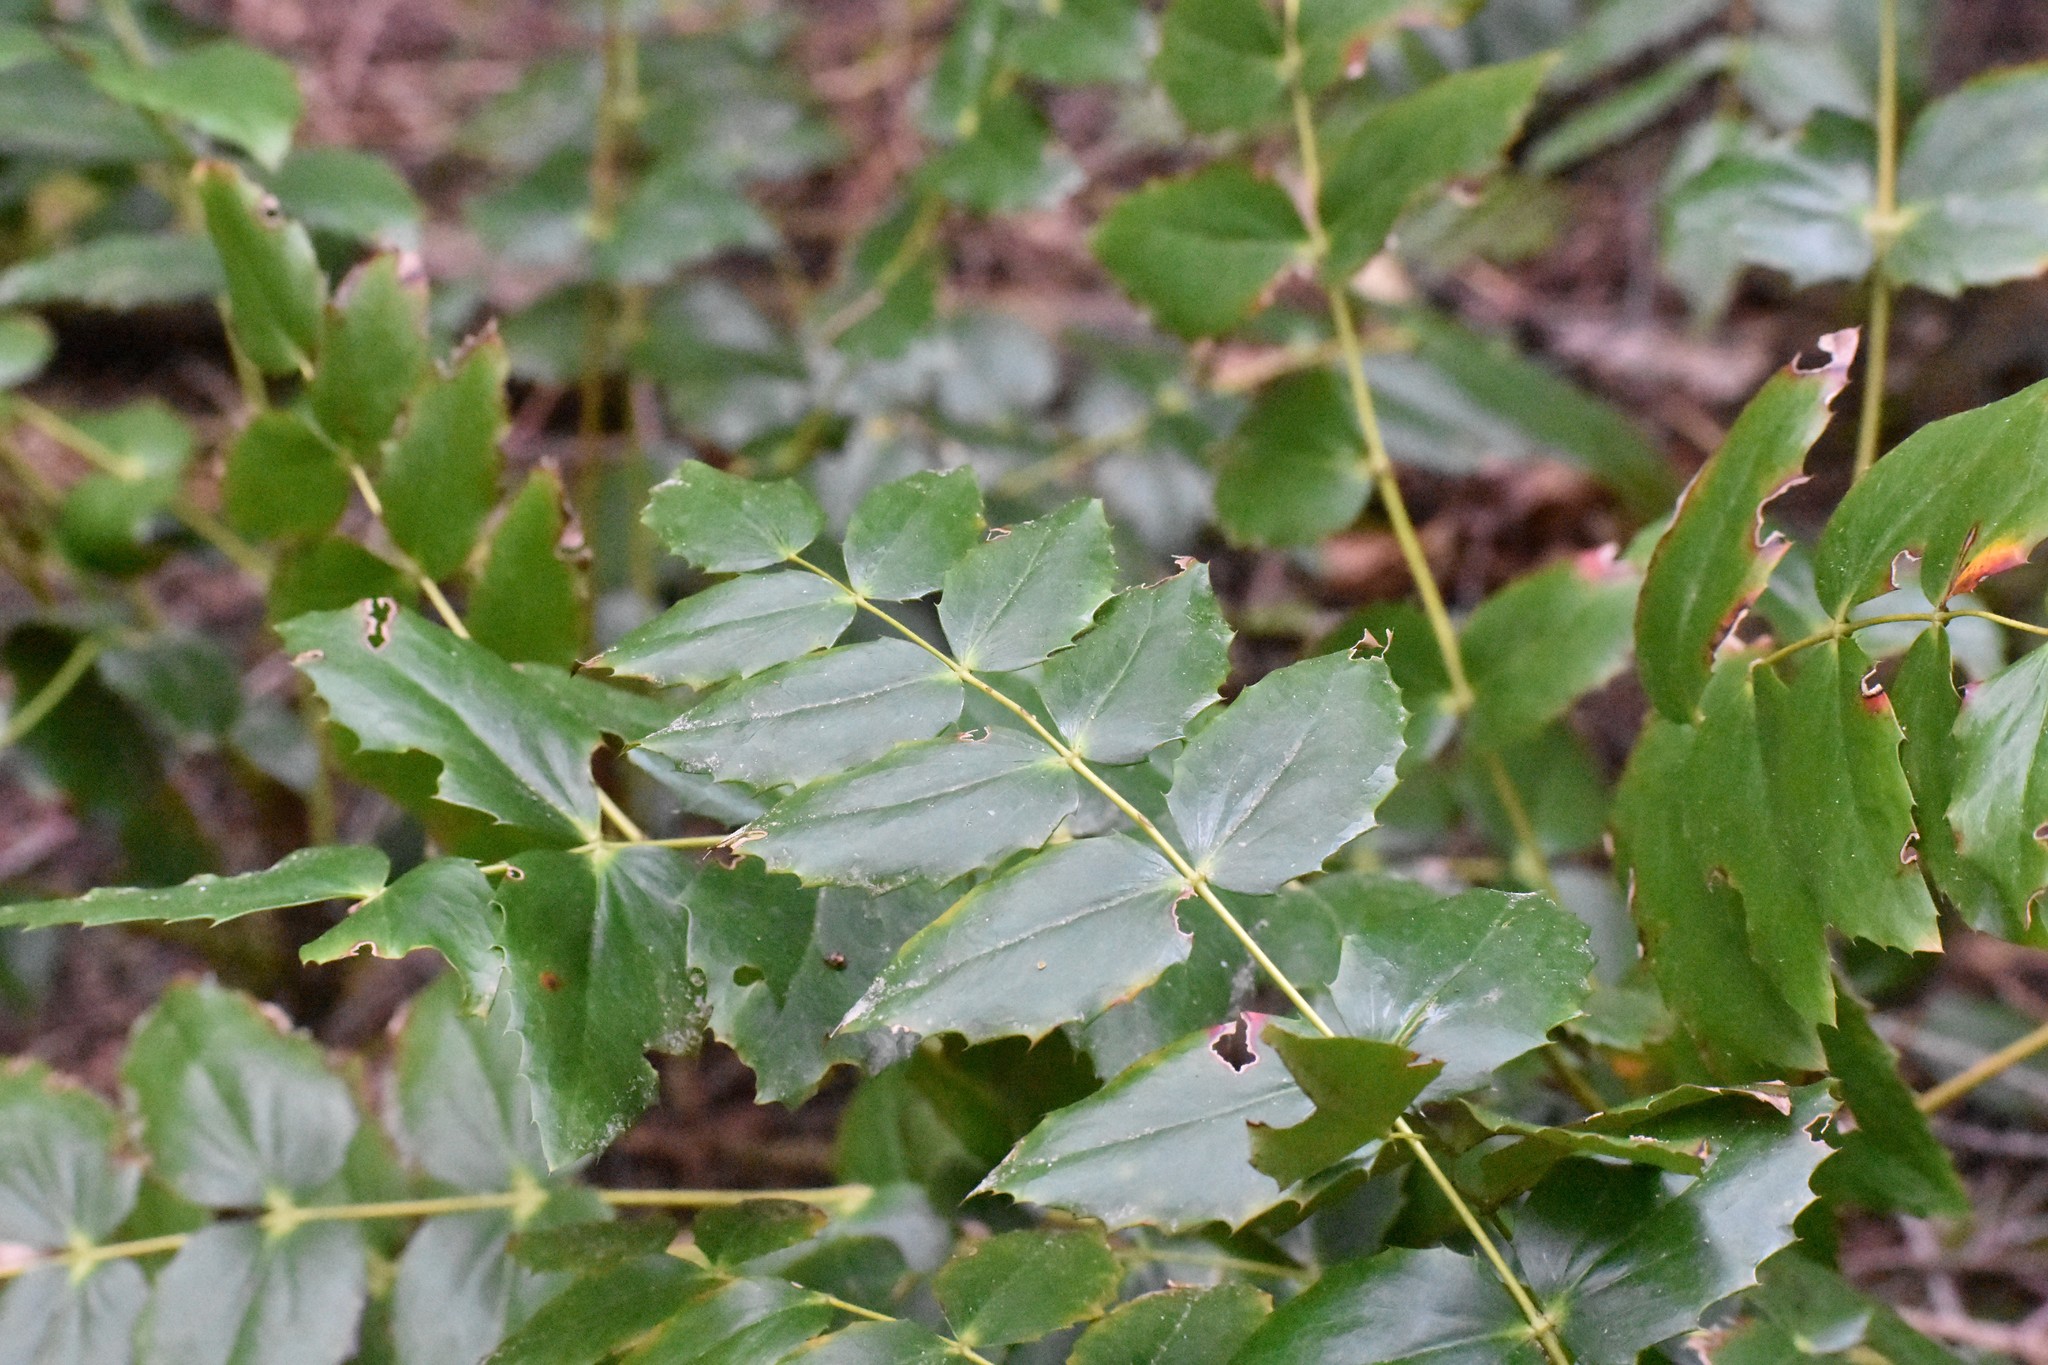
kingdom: Plantae
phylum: Tracheophyta
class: Magnoliopsida
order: Ranunculales
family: Berberidaceae
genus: Mahonia
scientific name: Mahonia nervosa
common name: Cascade oregon-grape
